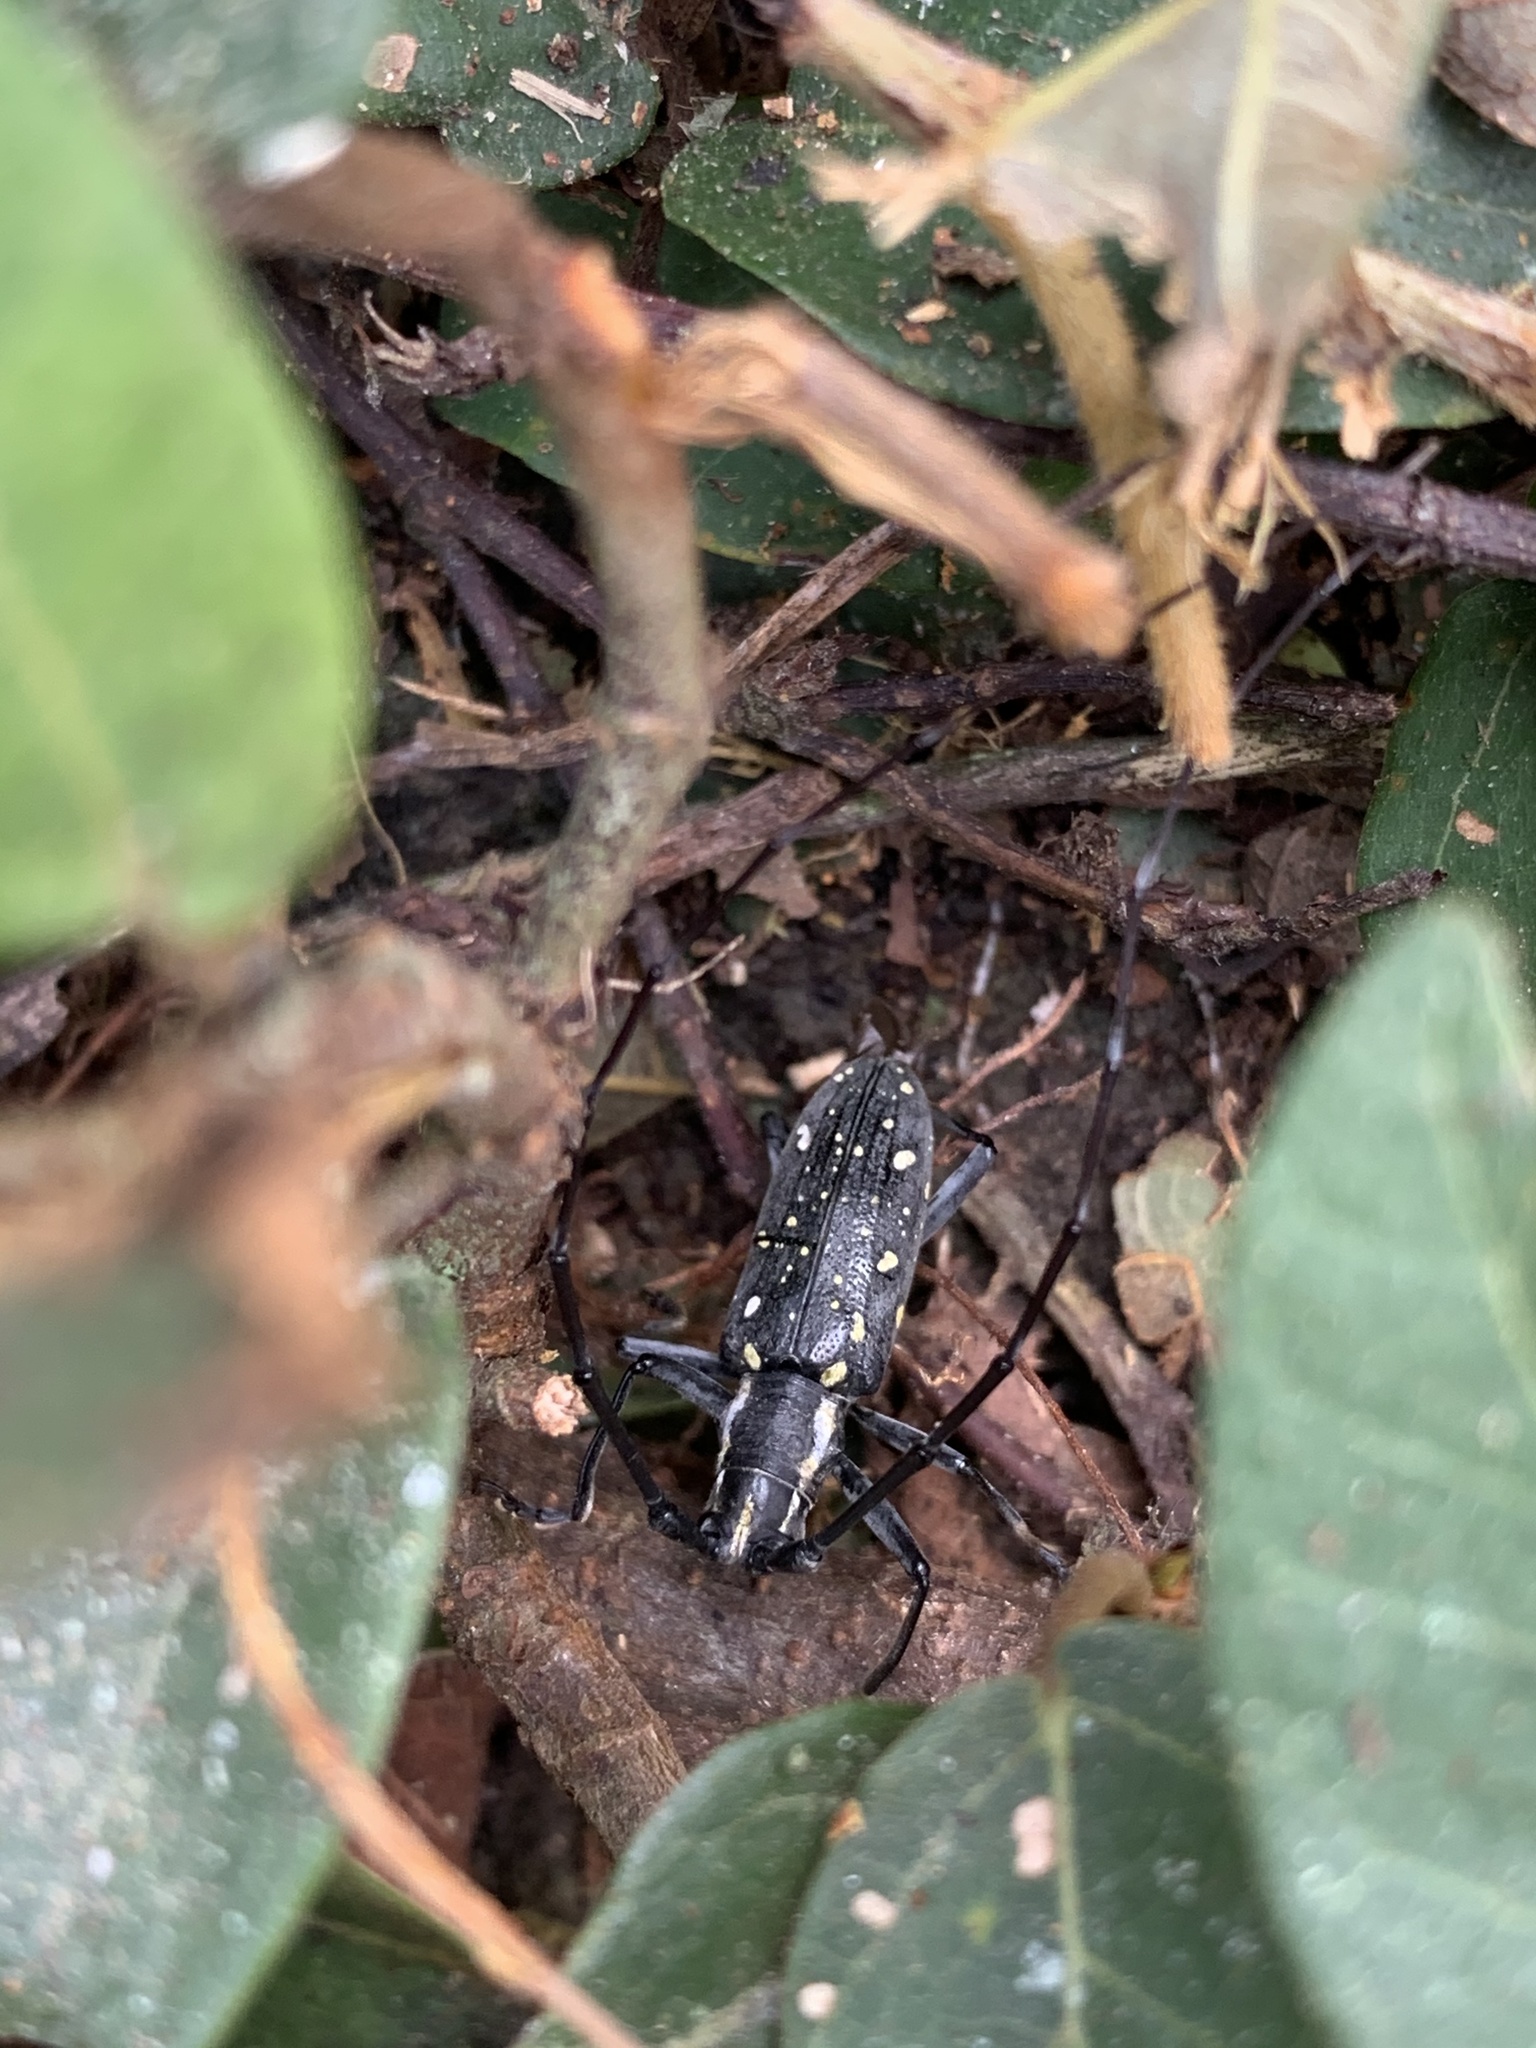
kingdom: Animalia
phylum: Arthropoda
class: Insecta
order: Coleoptera
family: Cerambycidae
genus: Psacothea
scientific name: Psacothea hilaris
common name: Yellow-spotted longicorn beetle
